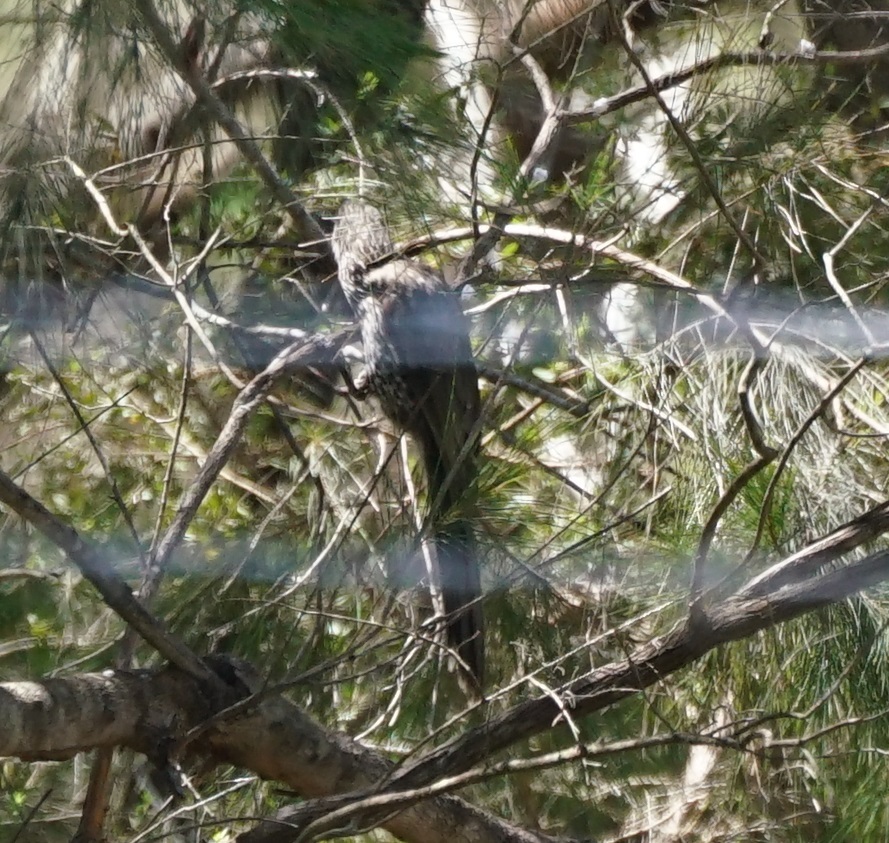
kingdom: Animalia
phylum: Chordata
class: Aves
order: Passeriformes
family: Meliphagidae
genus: Anthochaera
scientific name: Anthochaera chrysoptera
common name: Little wattlebird
